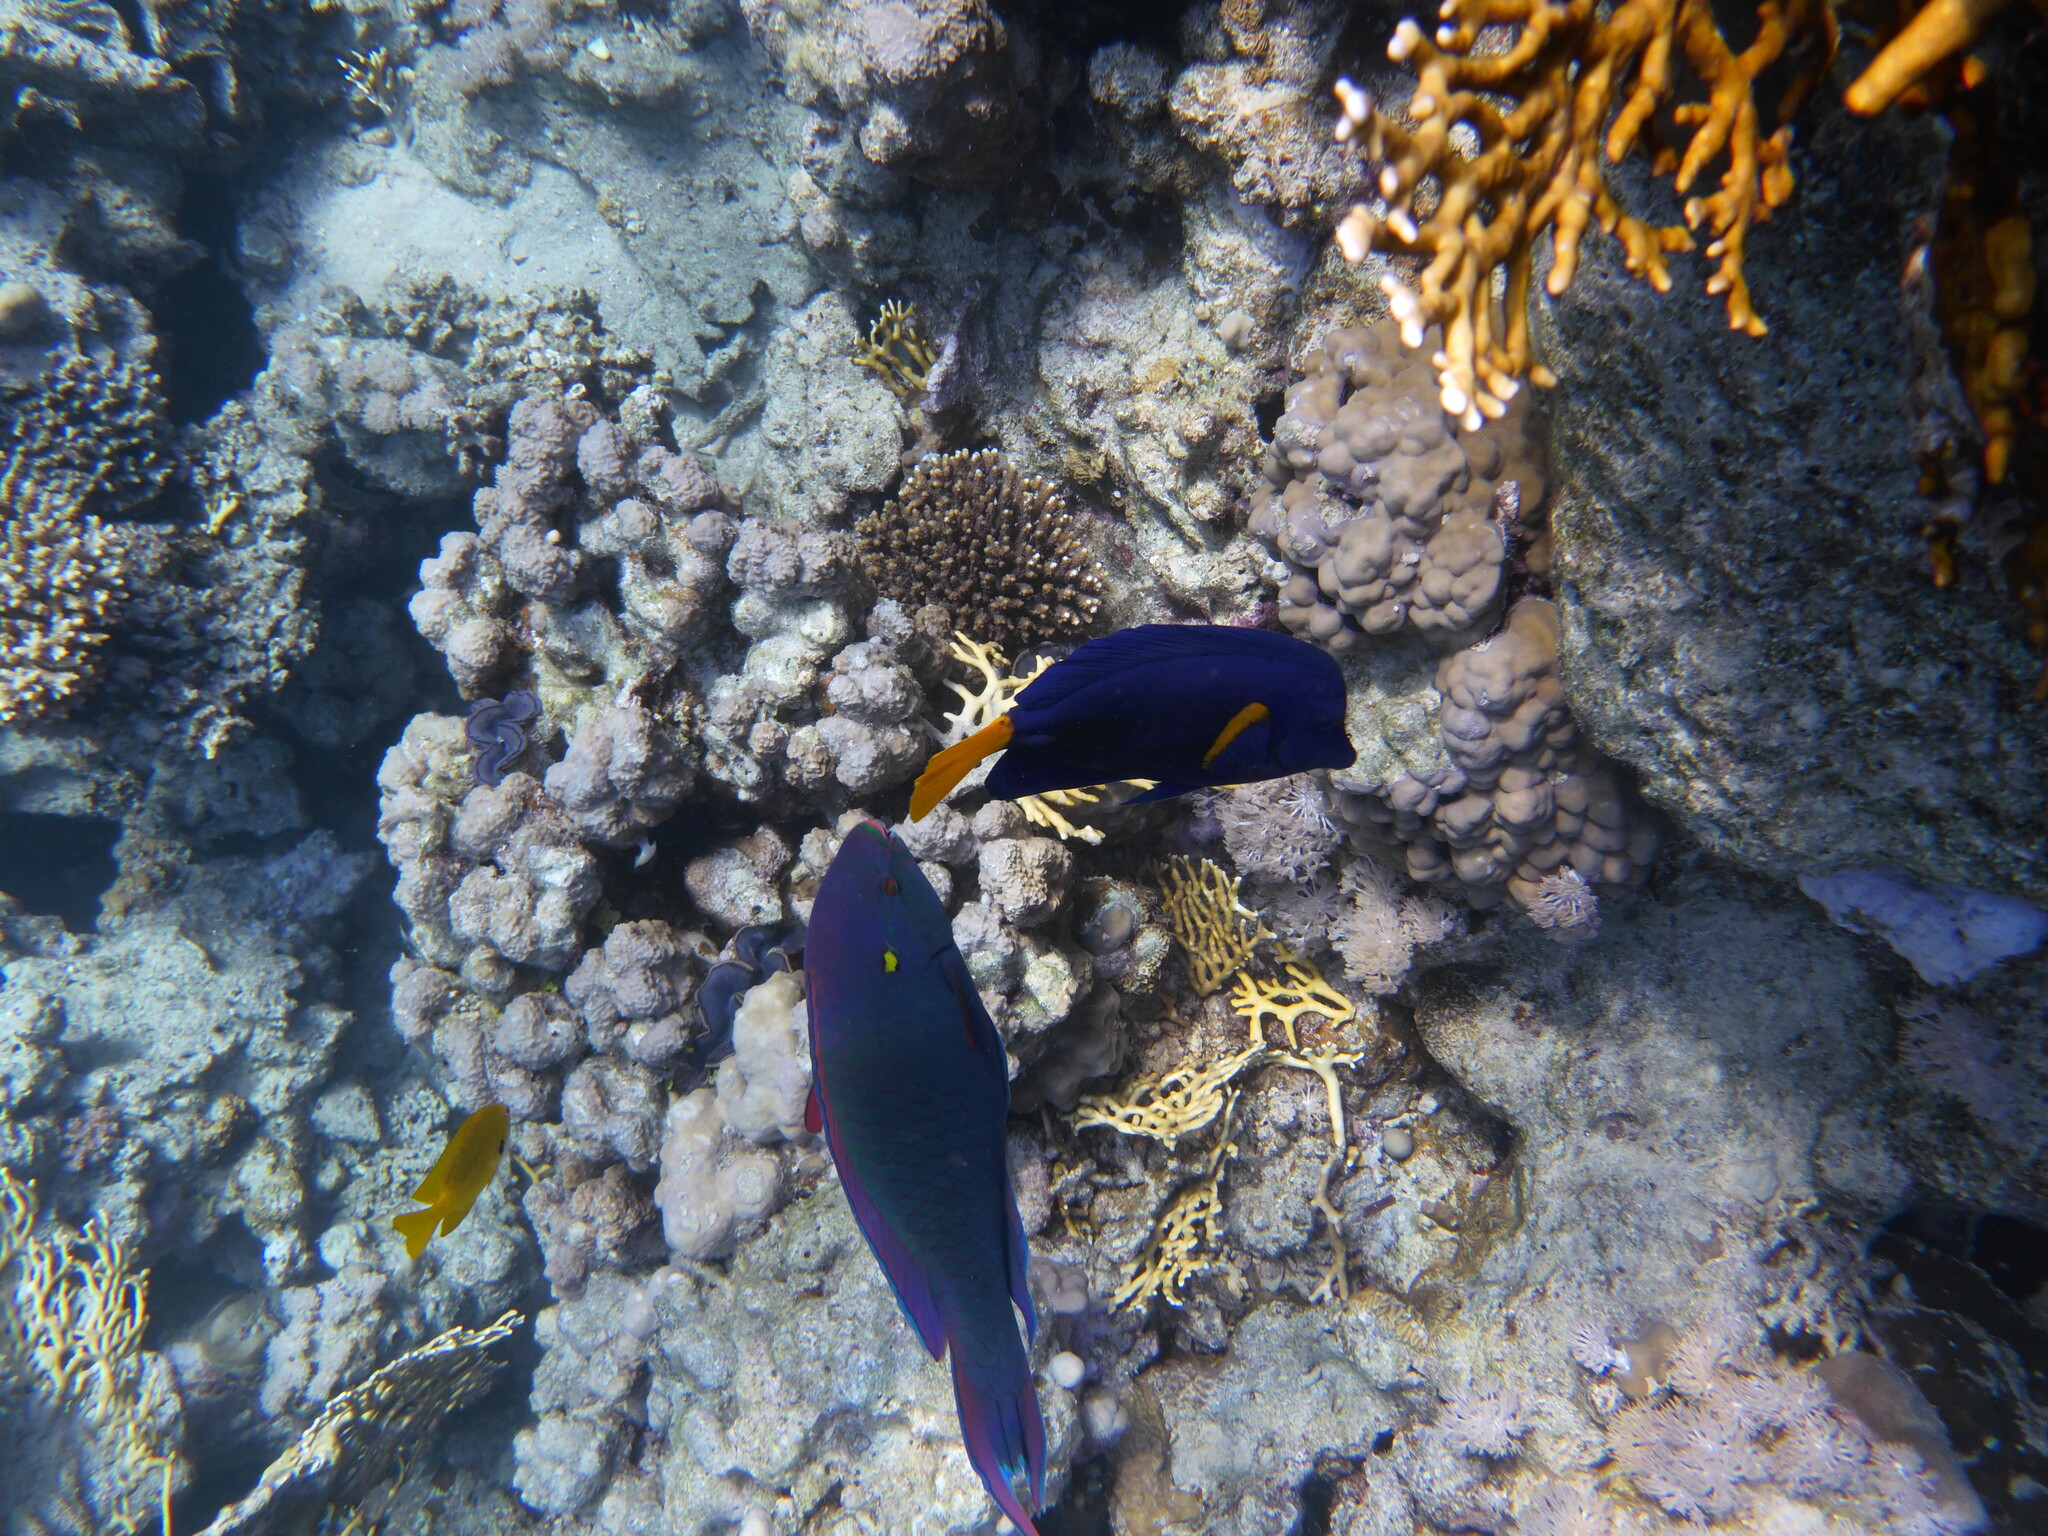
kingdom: Animalia
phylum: Chordata
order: Perciformes
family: Scaridae
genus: Scarus
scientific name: Scarus niger
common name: Dusky parrotfish
